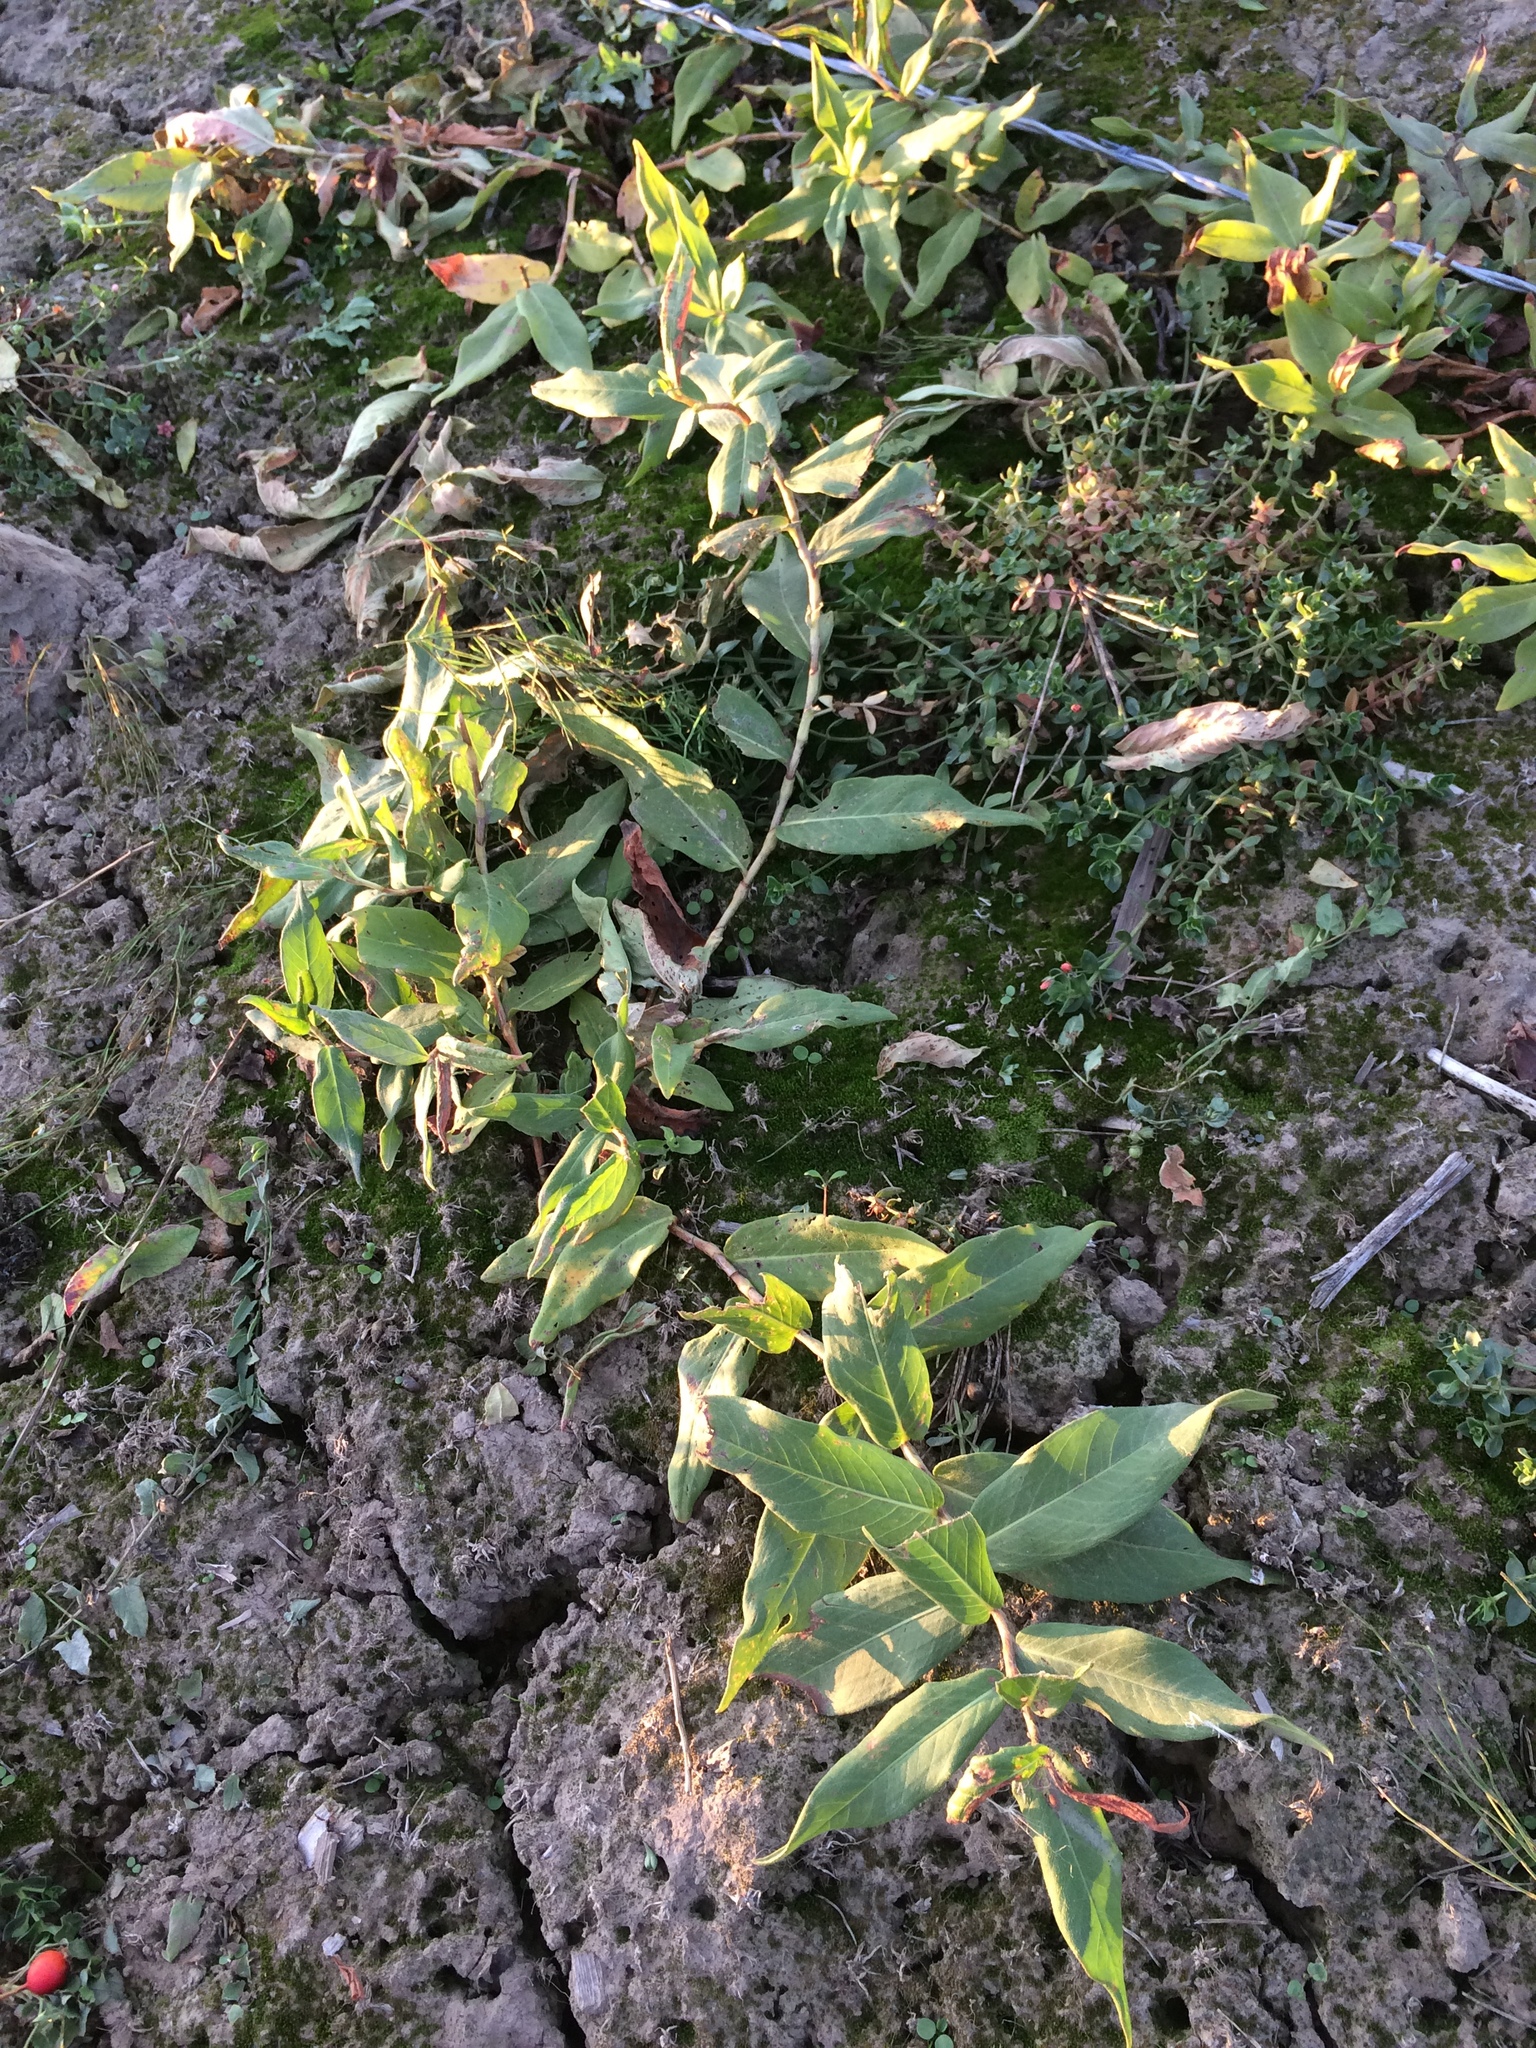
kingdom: Plantae
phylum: Tracheophyta
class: Magnoliopsida
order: Caryophyllales
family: Polygonaceae
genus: Persicaria
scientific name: Persicaria amphibia
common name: Amphibious bistort
